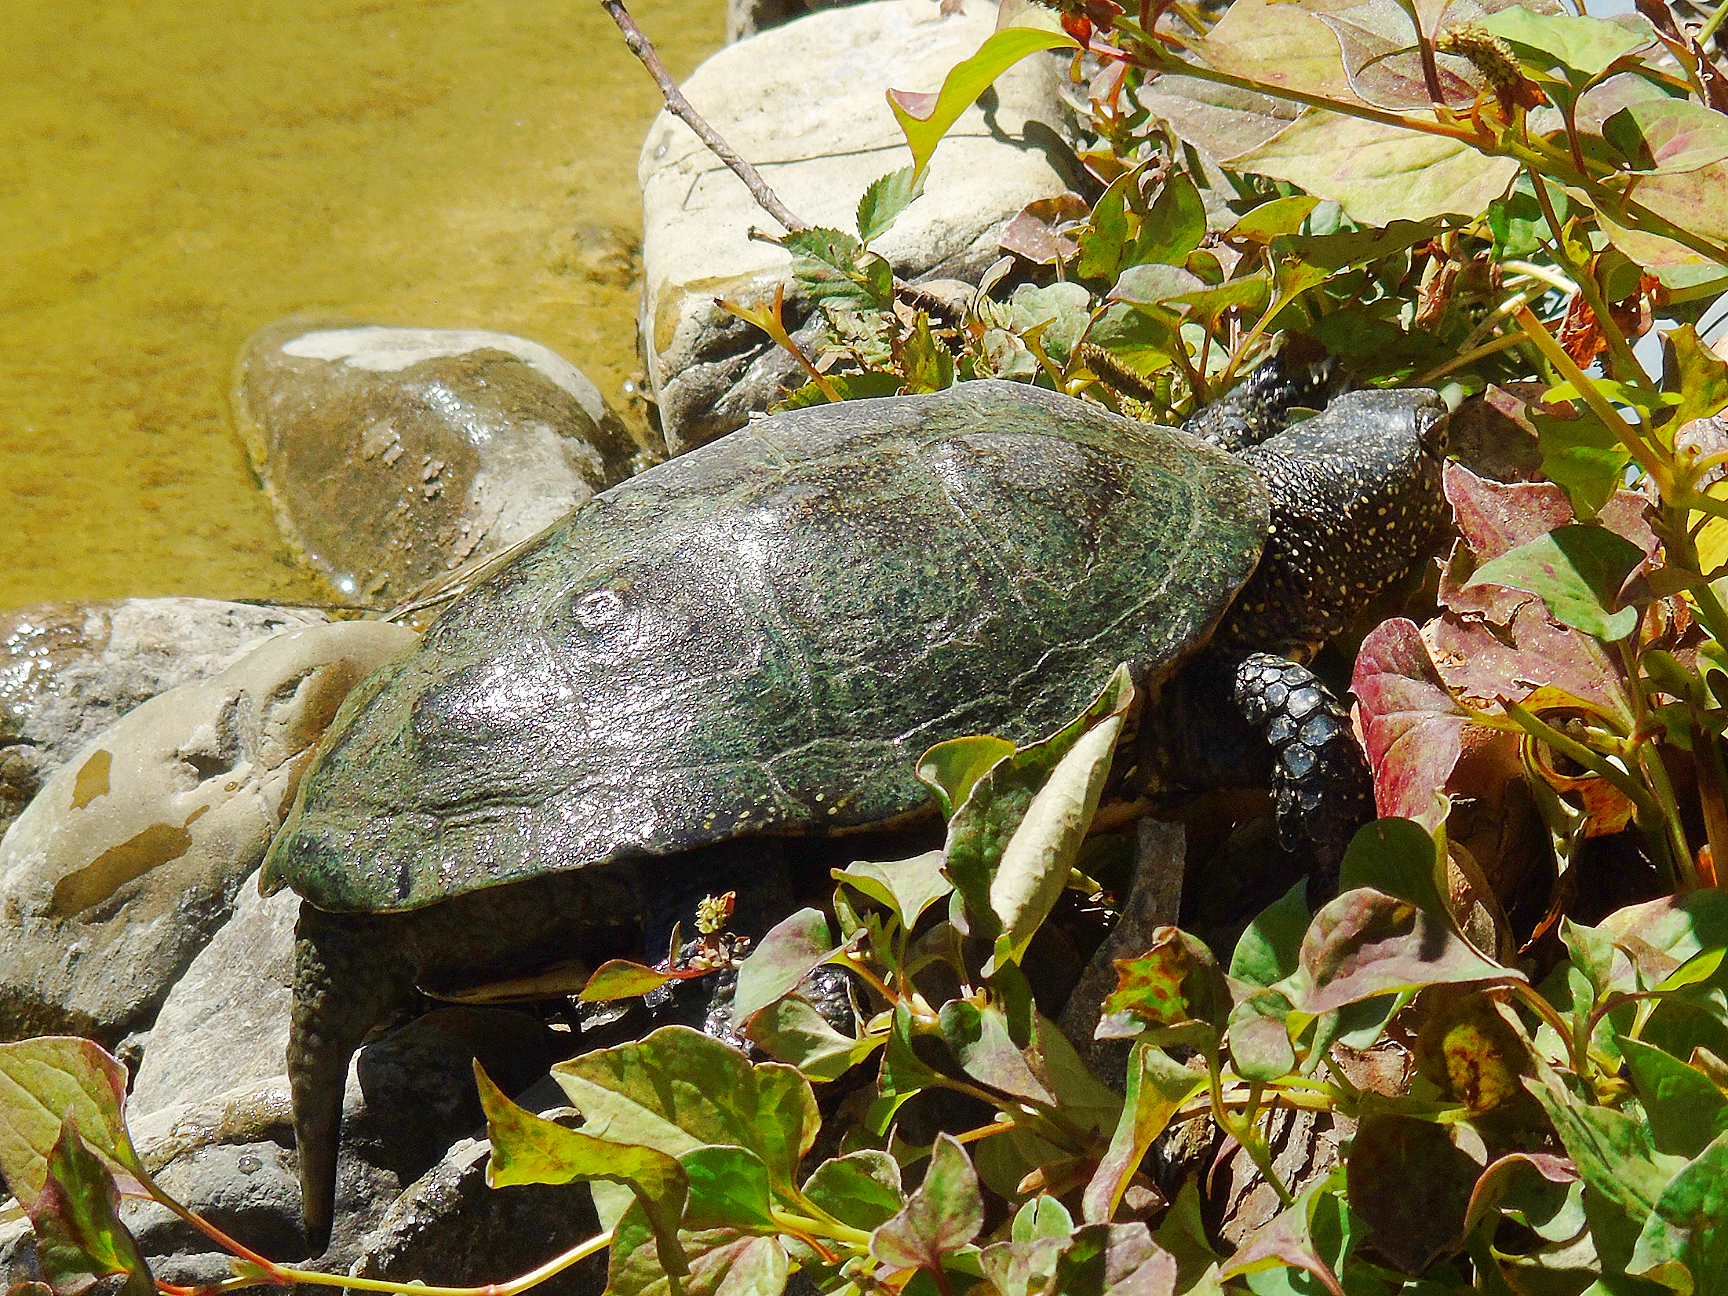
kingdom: Animalia
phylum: Chordata
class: Testudines
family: Emydidae
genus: Emys
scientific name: Emys orbicularis
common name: European pond turtle
